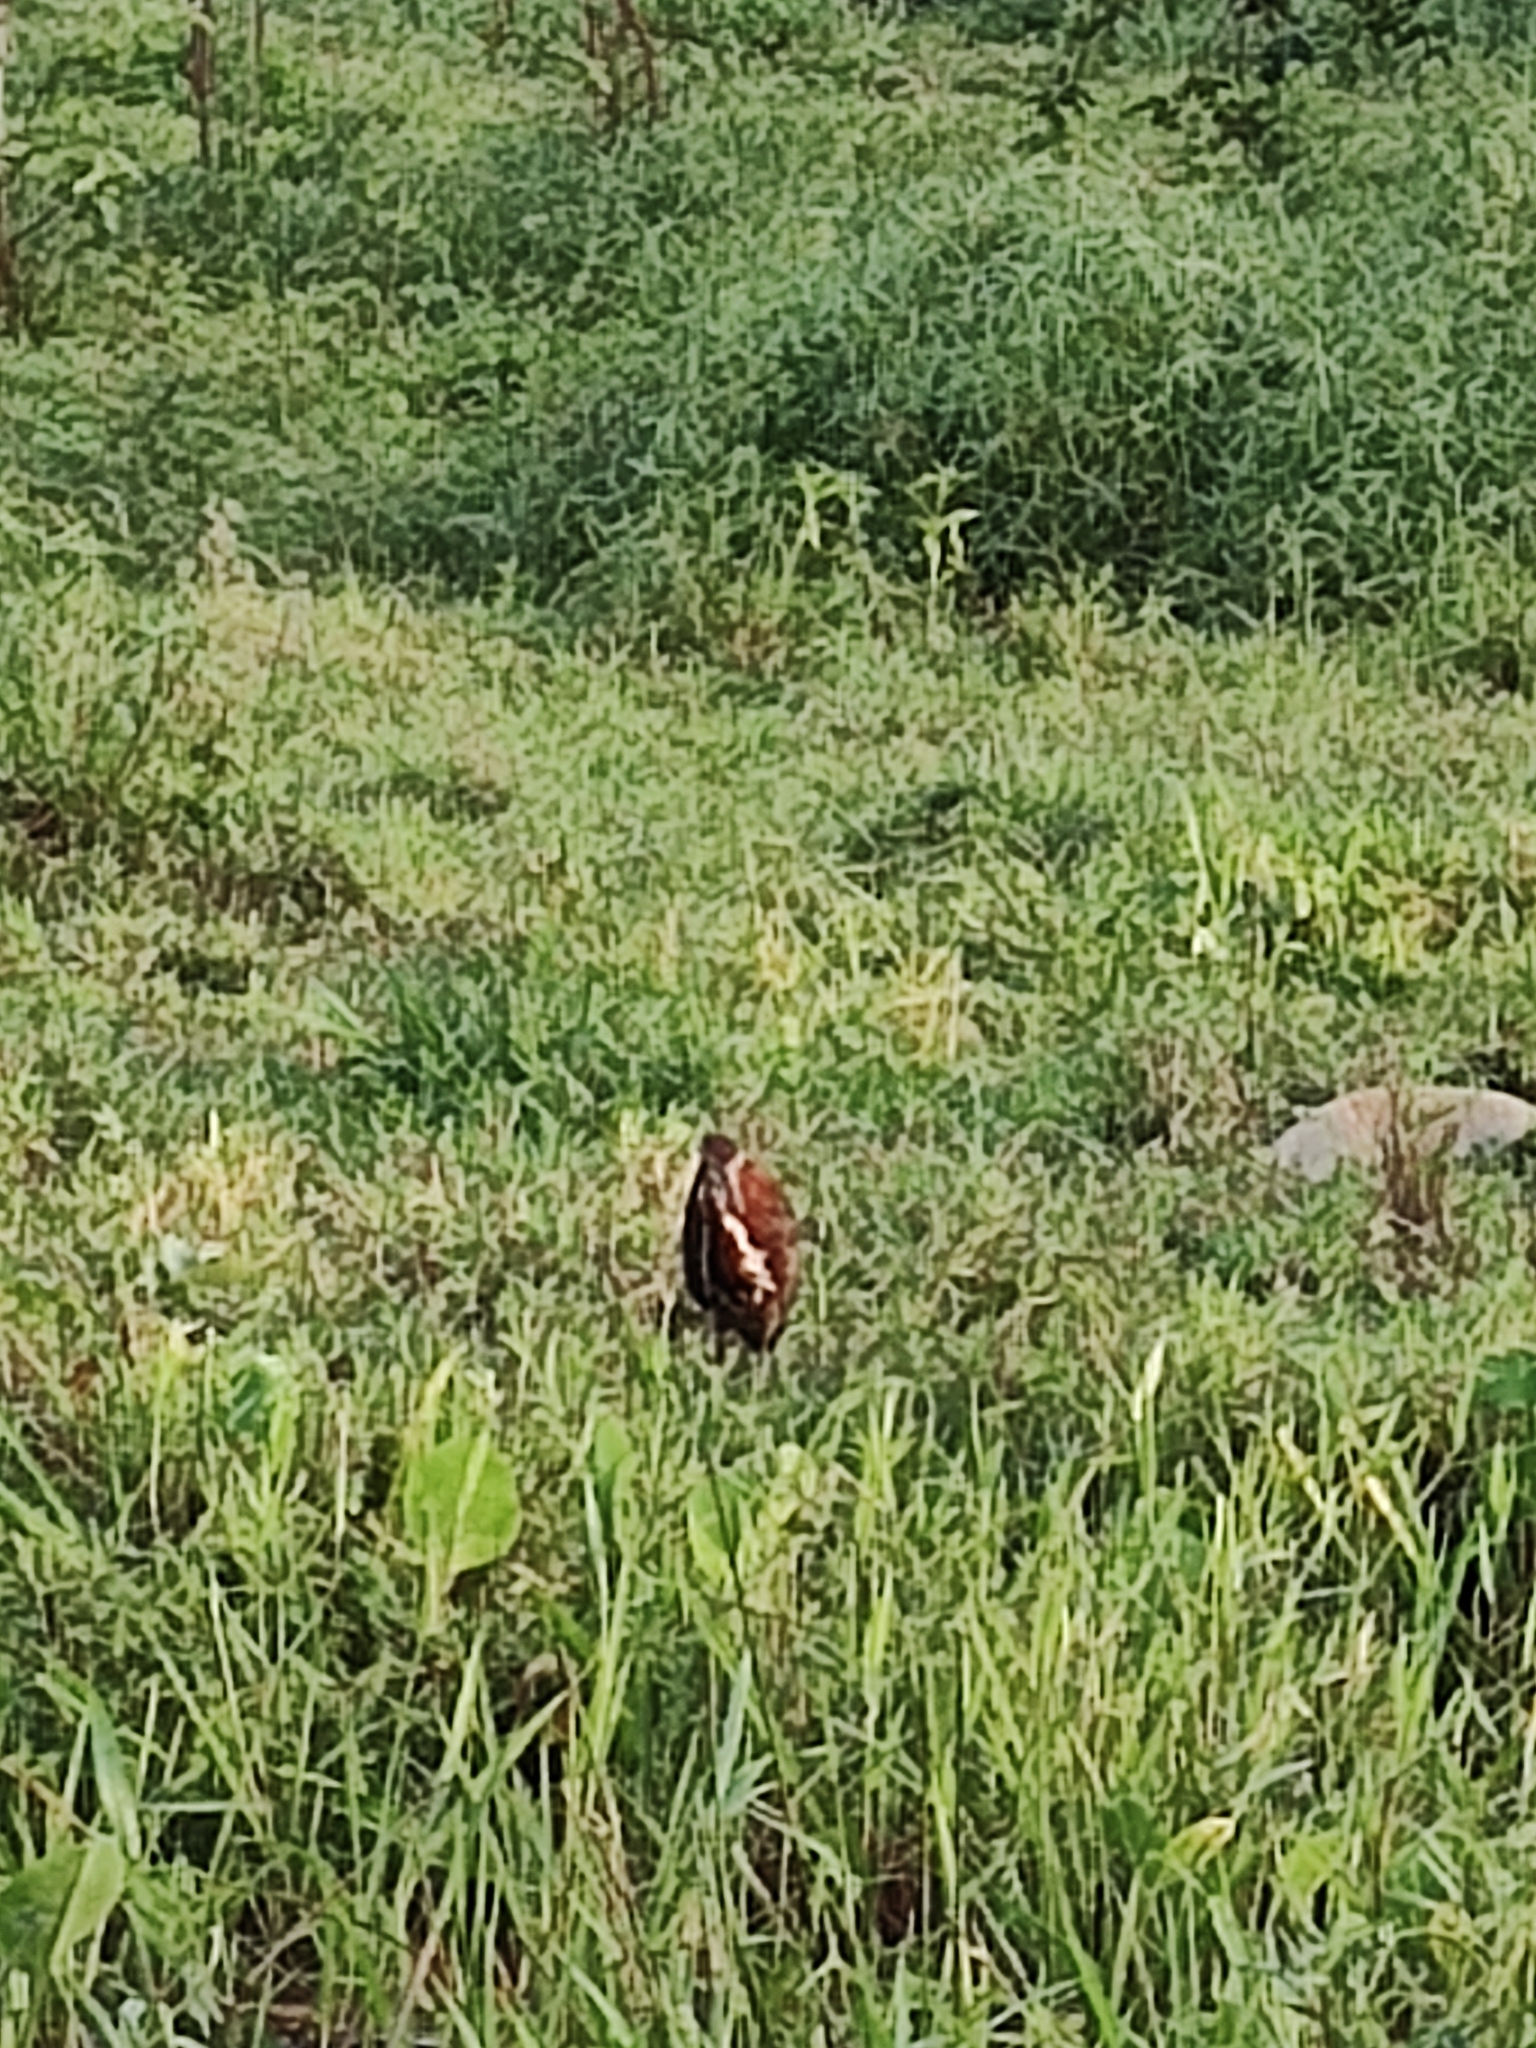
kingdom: Animalia
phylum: Chordata
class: Aves
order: Pelecaniformes
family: Ardeidae
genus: Tigrisoma
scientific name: Tigrisoma lineatum
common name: Rufescent tiger-heron
